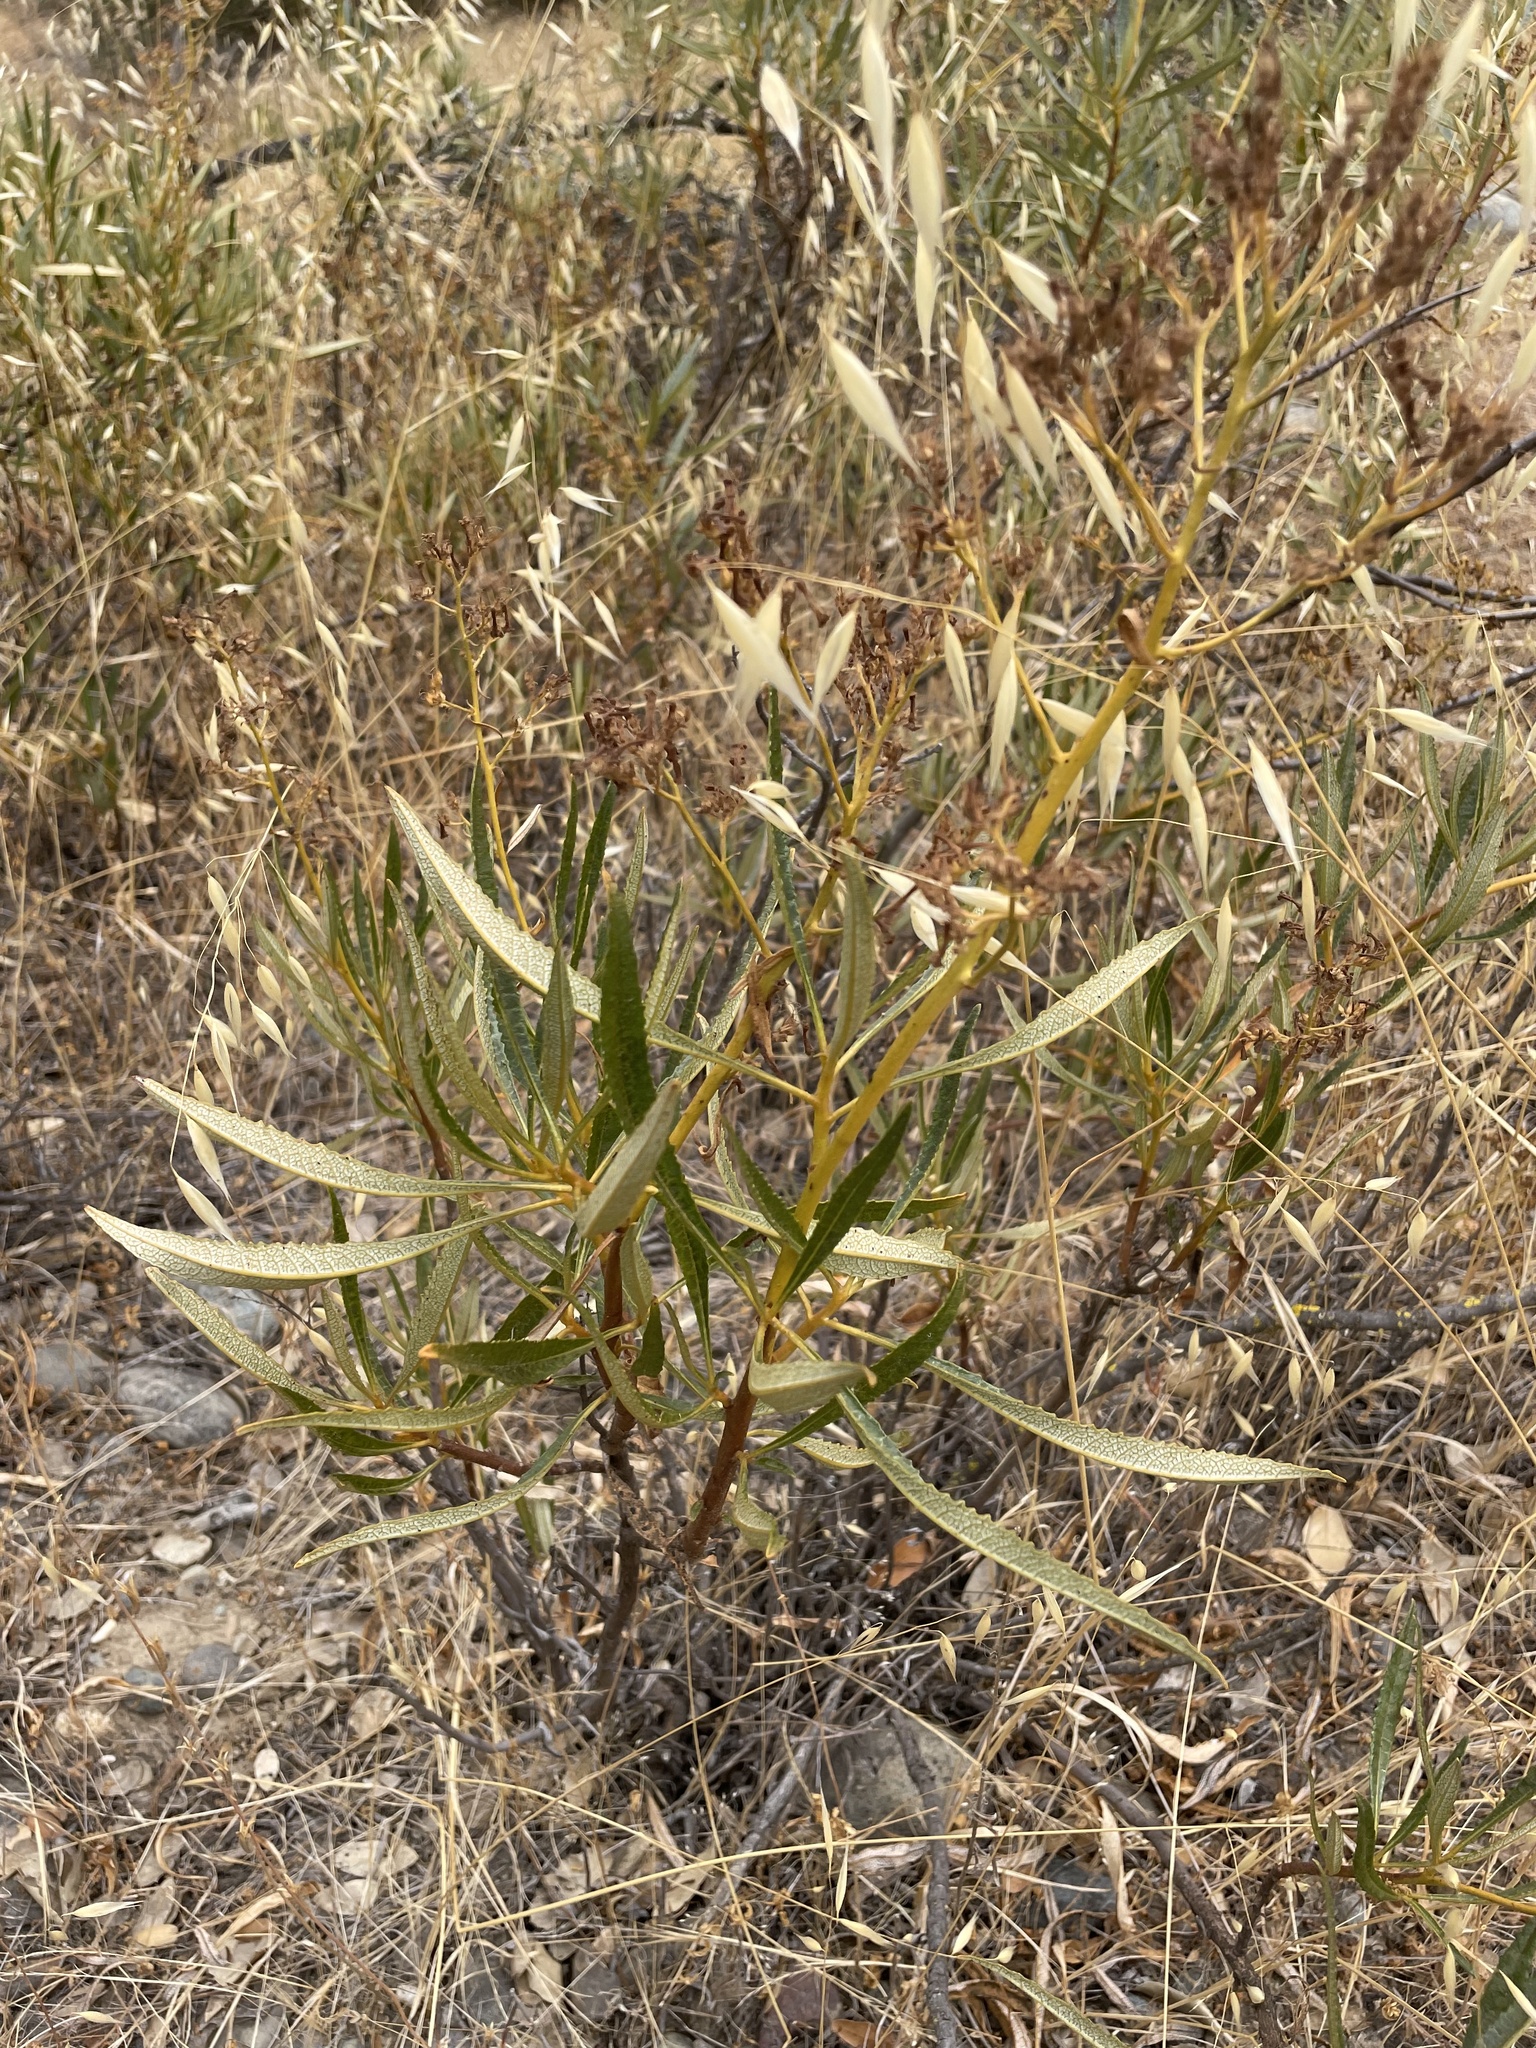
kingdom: Plantae
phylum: Tracheophyta
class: Magnoliopsida
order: Boraginales
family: Namaceae
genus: Eriodictyon
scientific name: Eriodictyon californicum
